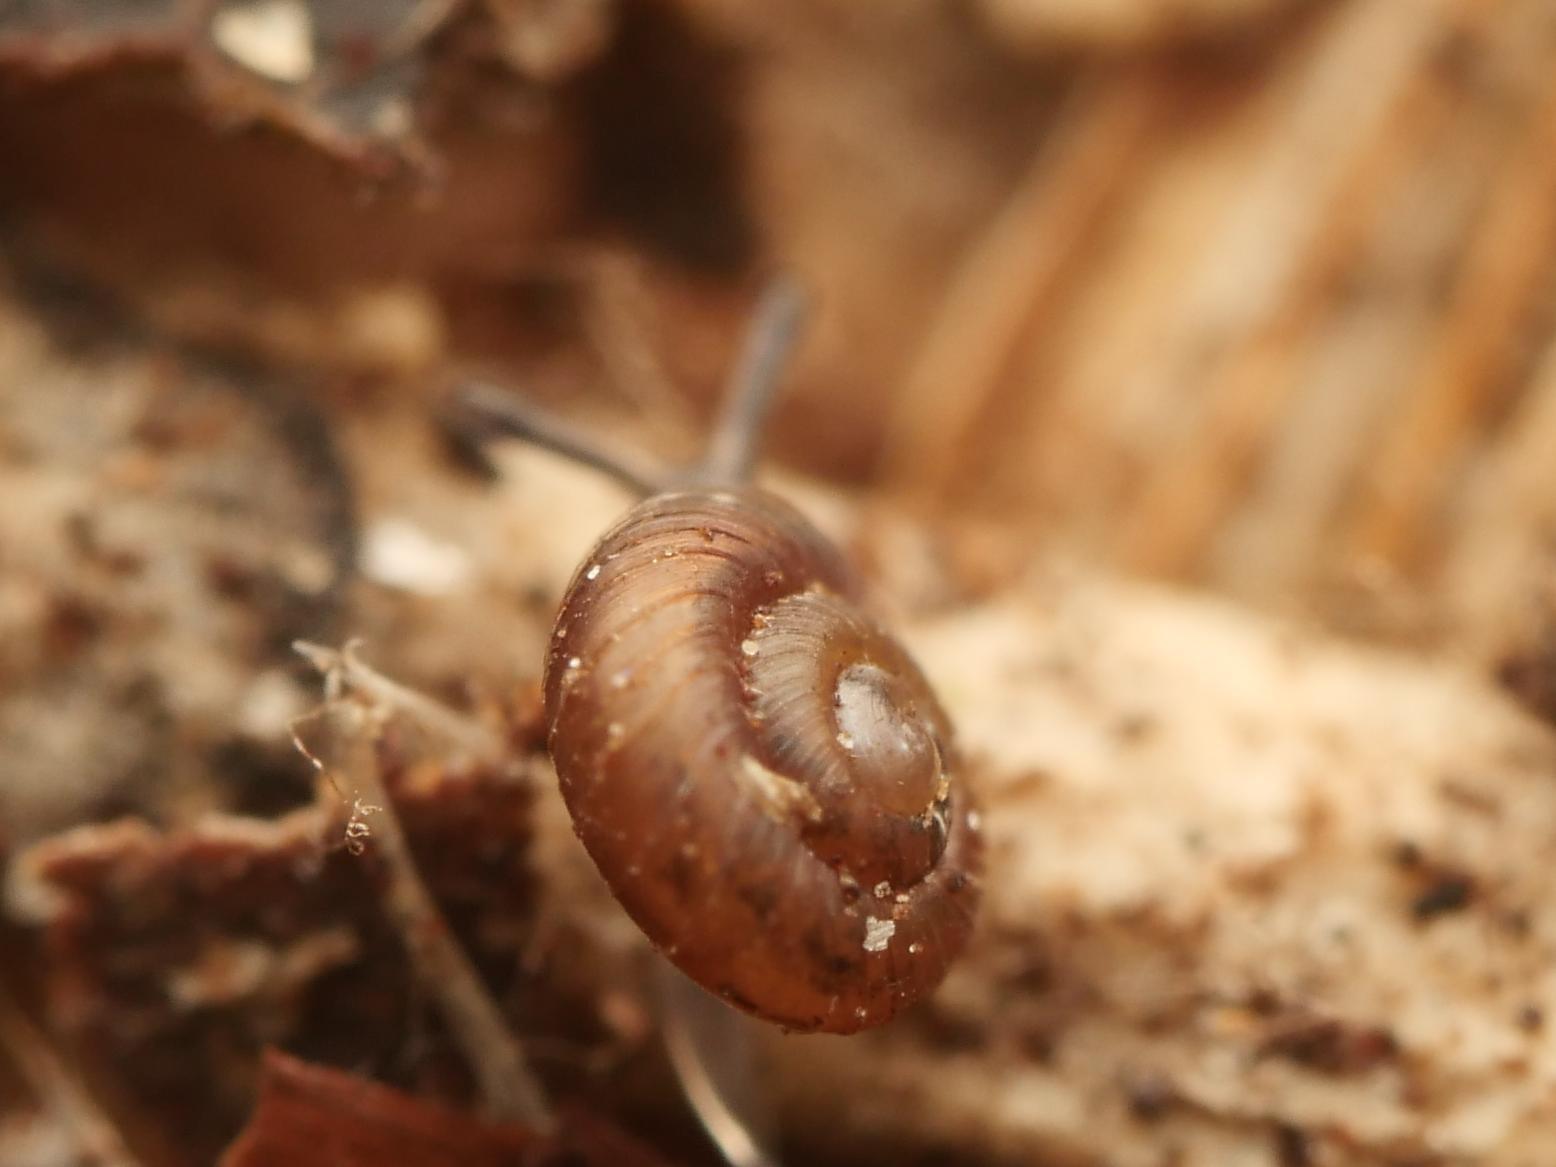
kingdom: Animalia
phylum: Mollusca
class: Gastropoda
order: Stylommatophora
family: Punctidae
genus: Paralaoma
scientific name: Paralaoma servilis
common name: Pinhead spot
